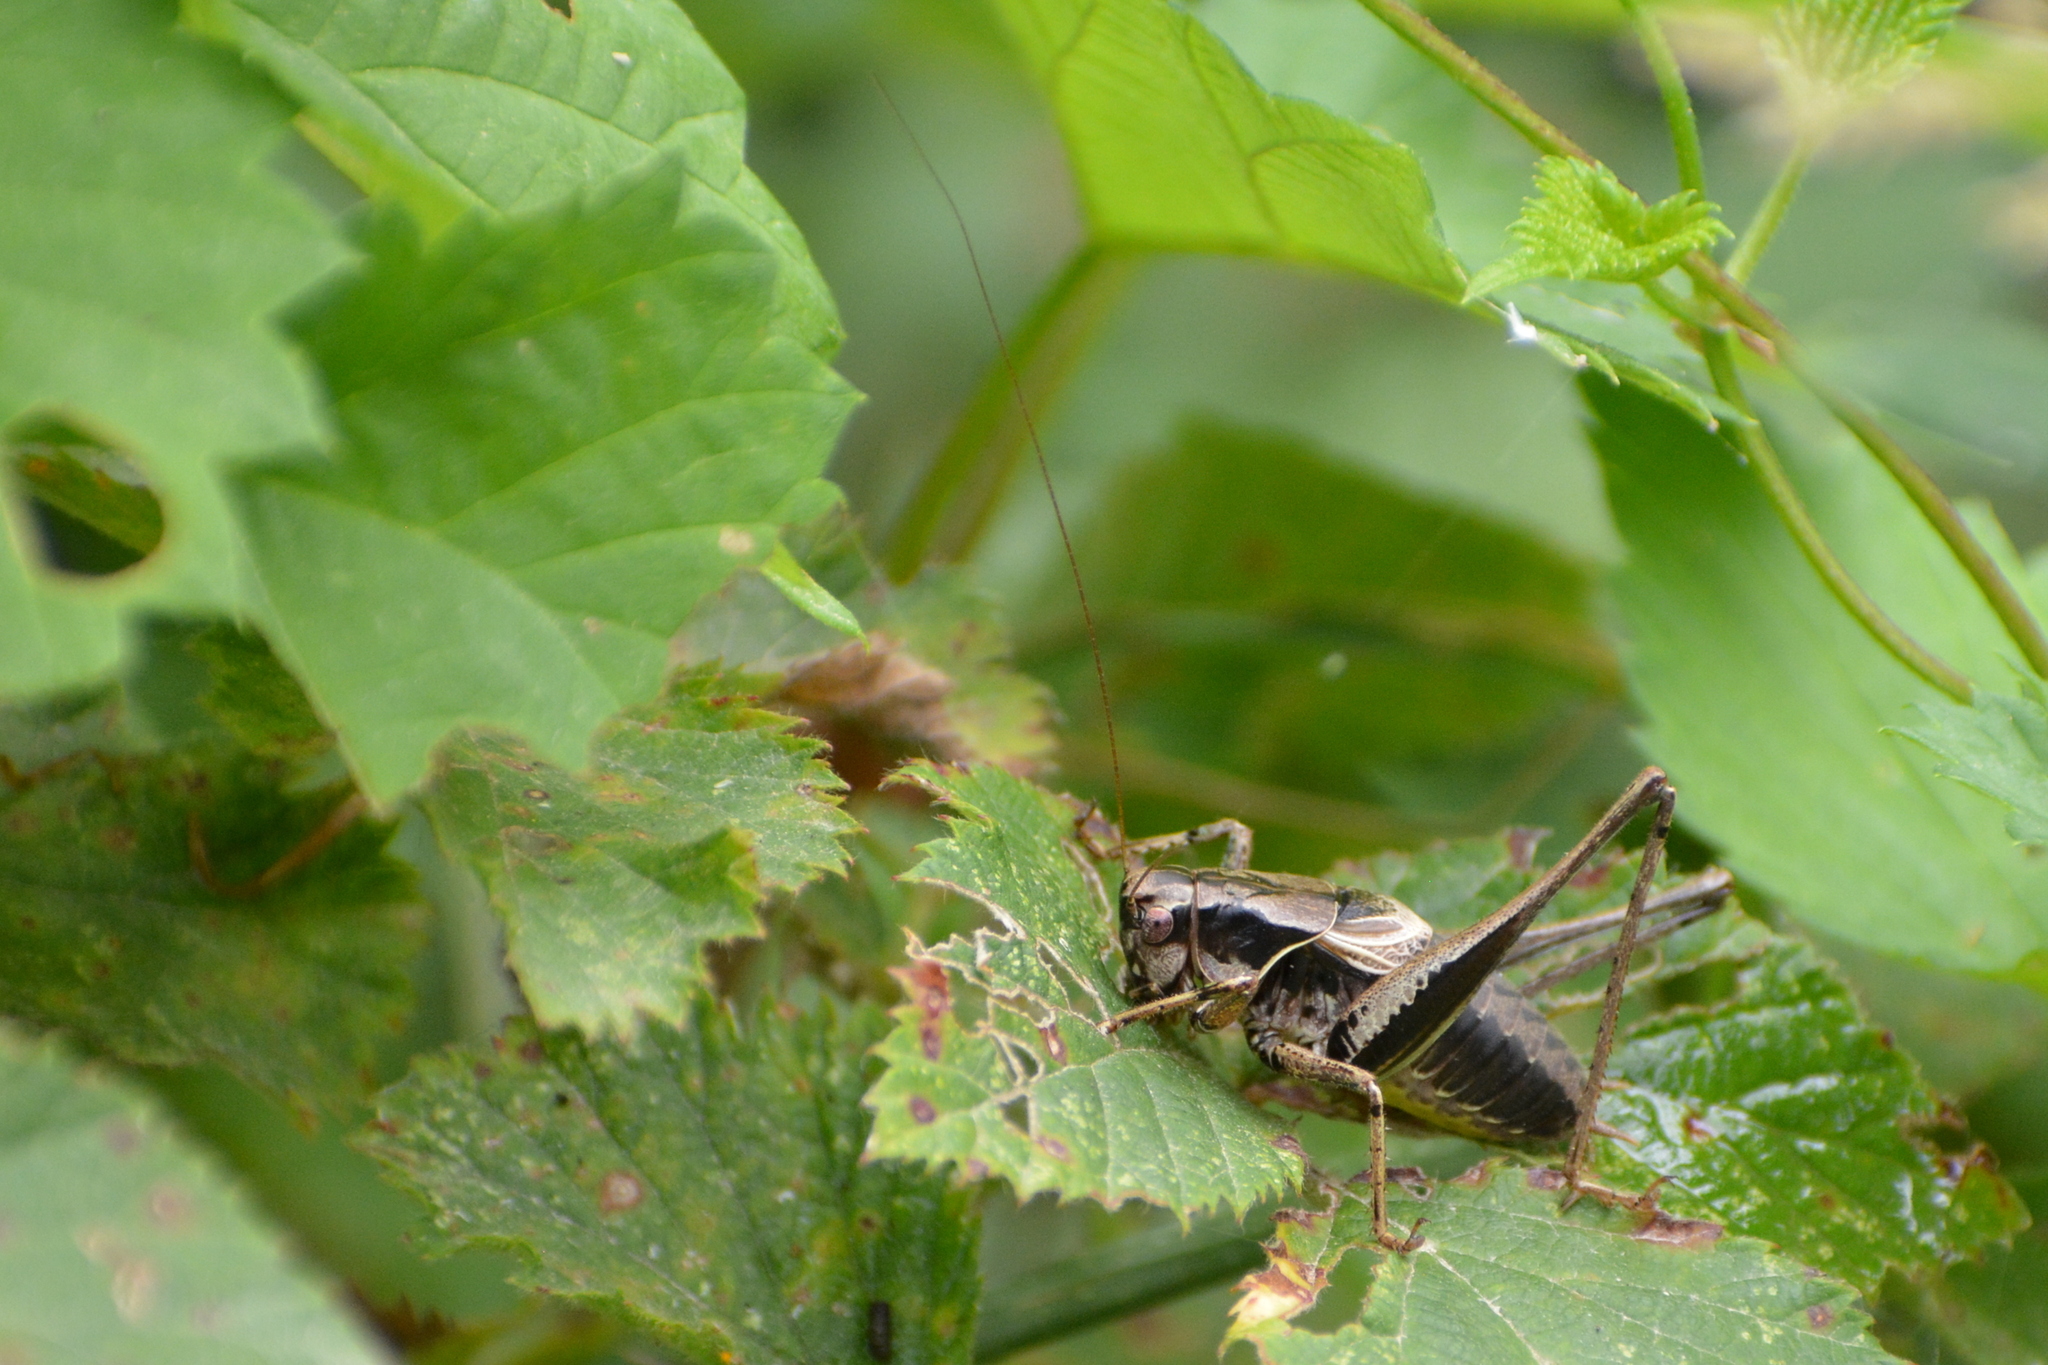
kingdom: Animalia
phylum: Arthropoda
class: Insecta
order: Orthoptera
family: Tettigoniidae
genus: Pholidoptera
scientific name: Pholidoptera griseoaptera
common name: Dark bush-cricket
